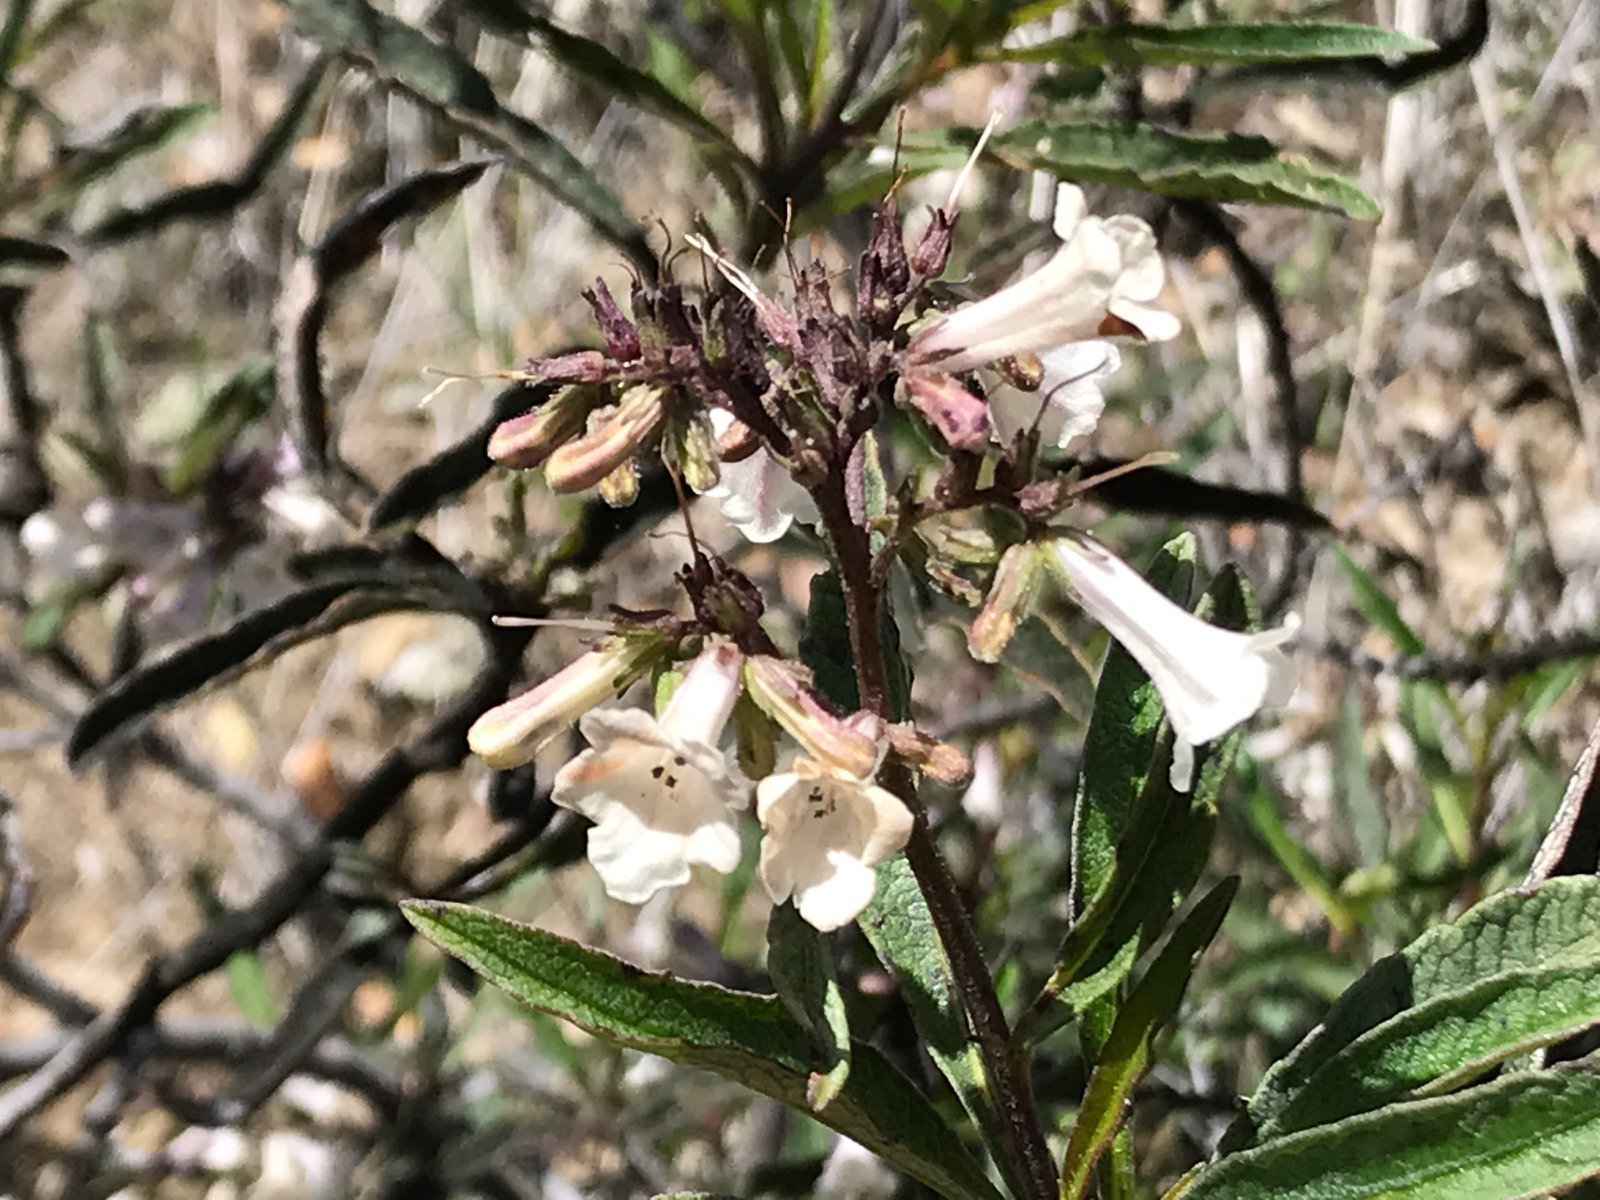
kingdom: Plantae
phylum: Tracheophyta
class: Magnoliopsida
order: Boraginales
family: Namaceae
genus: Eriodictyon
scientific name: Eriodictyon californicum
